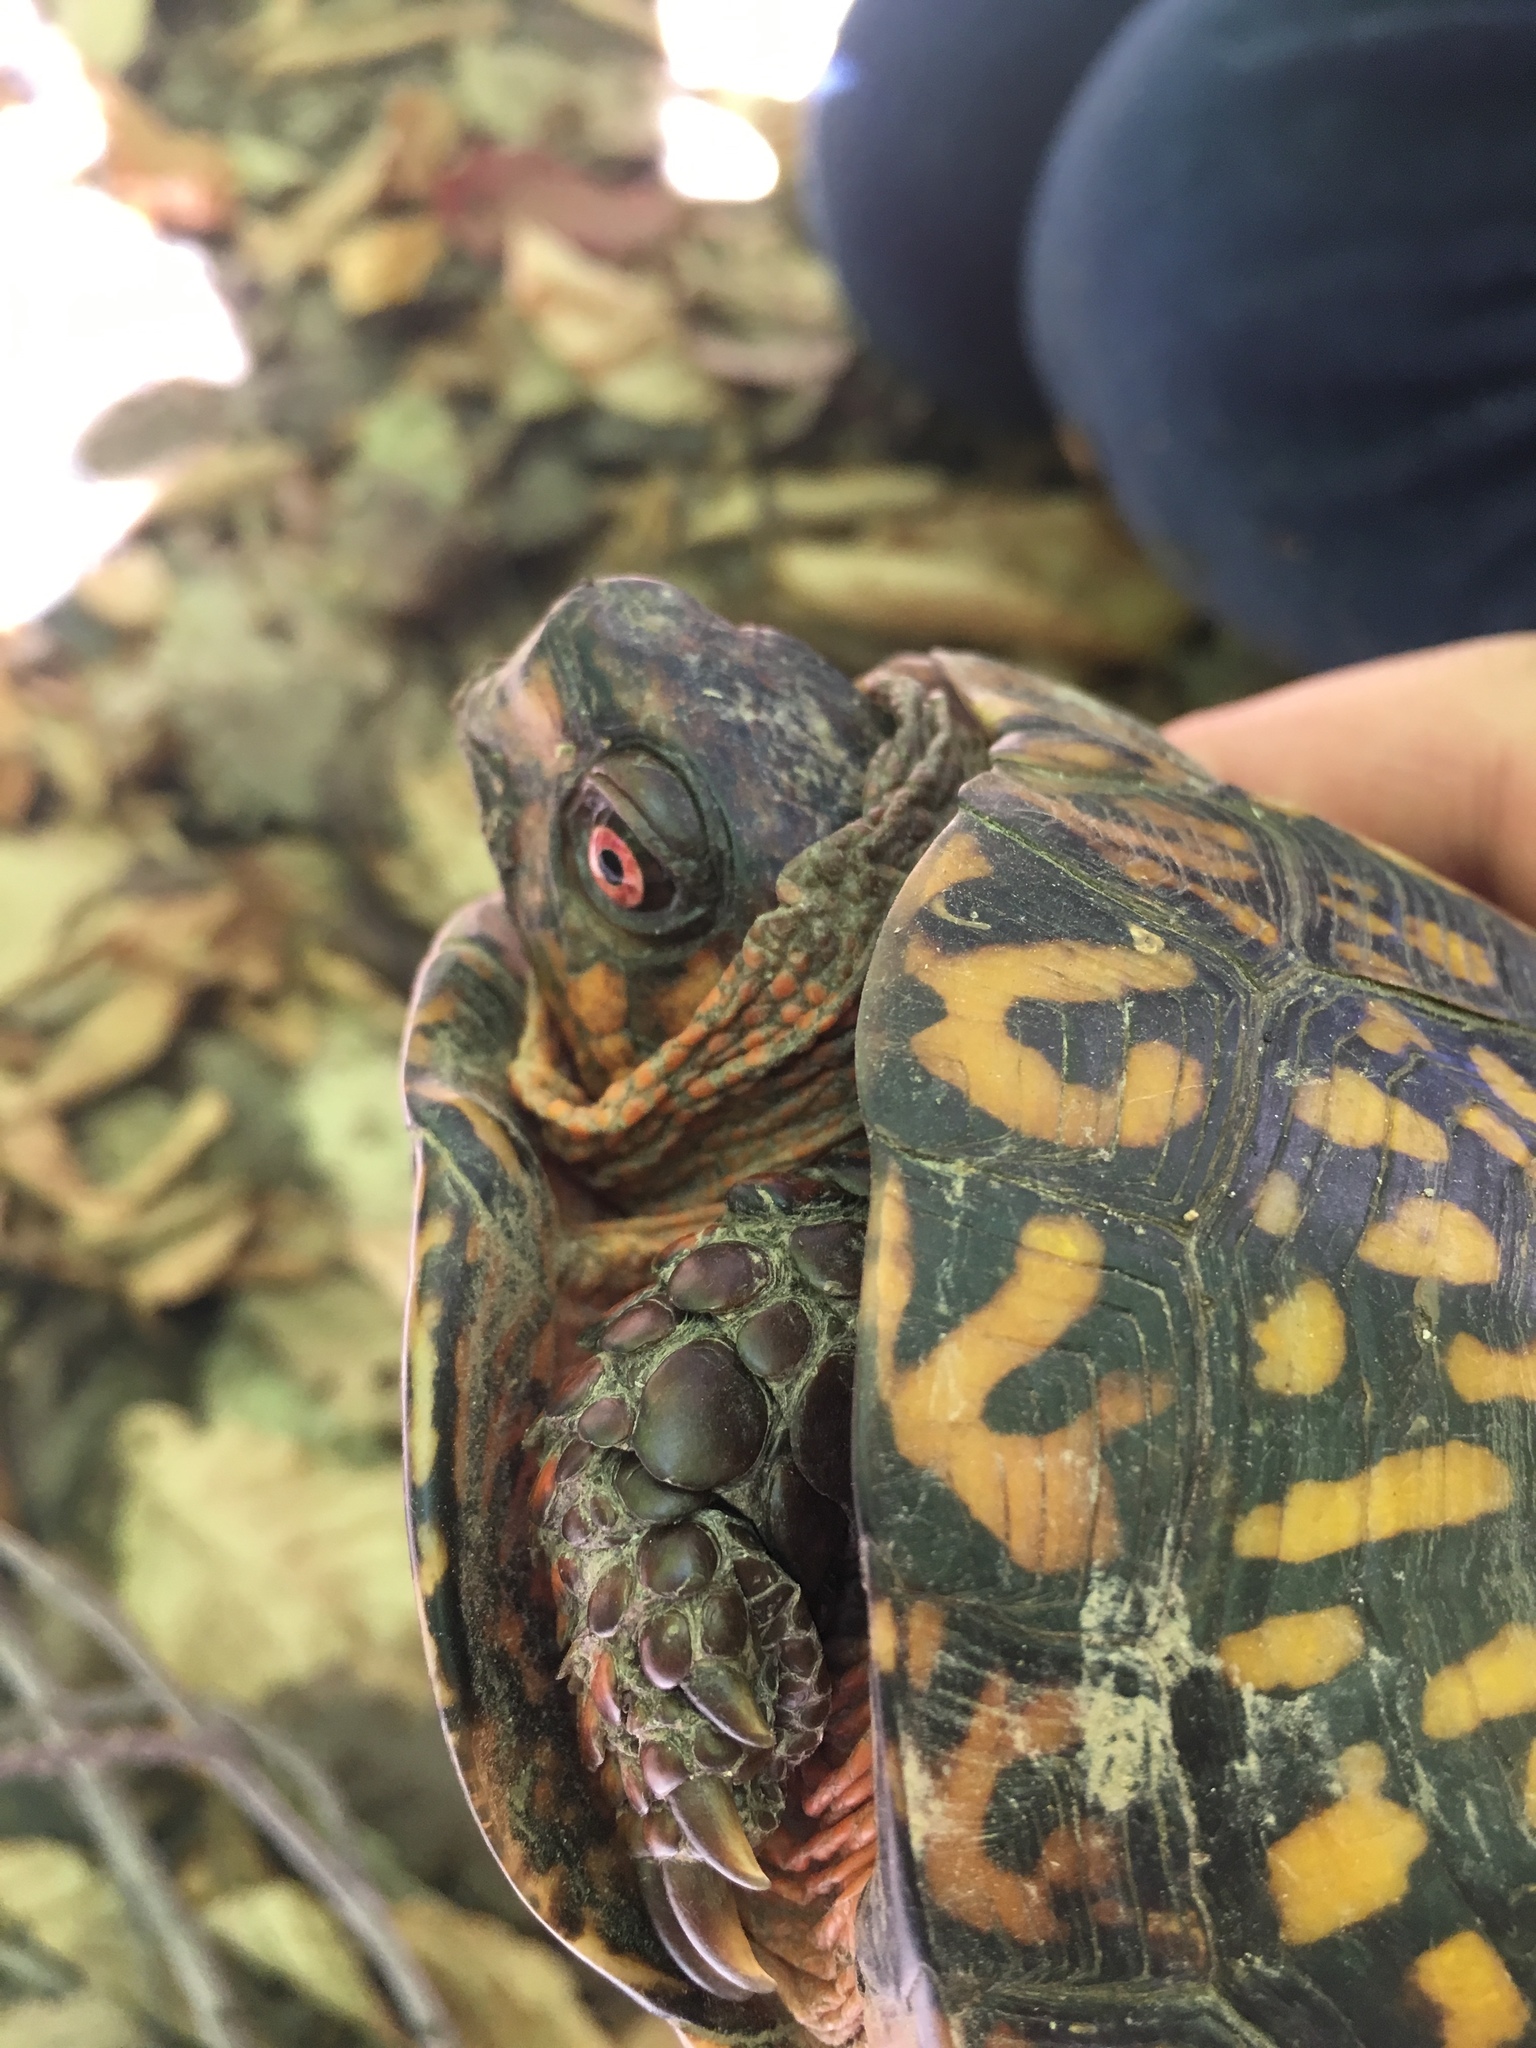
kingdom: Animalia
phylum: Chordata
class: Testudines
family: Emydidae
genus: Terrapene
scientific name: Terrapene carolina
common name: Common box turtle
